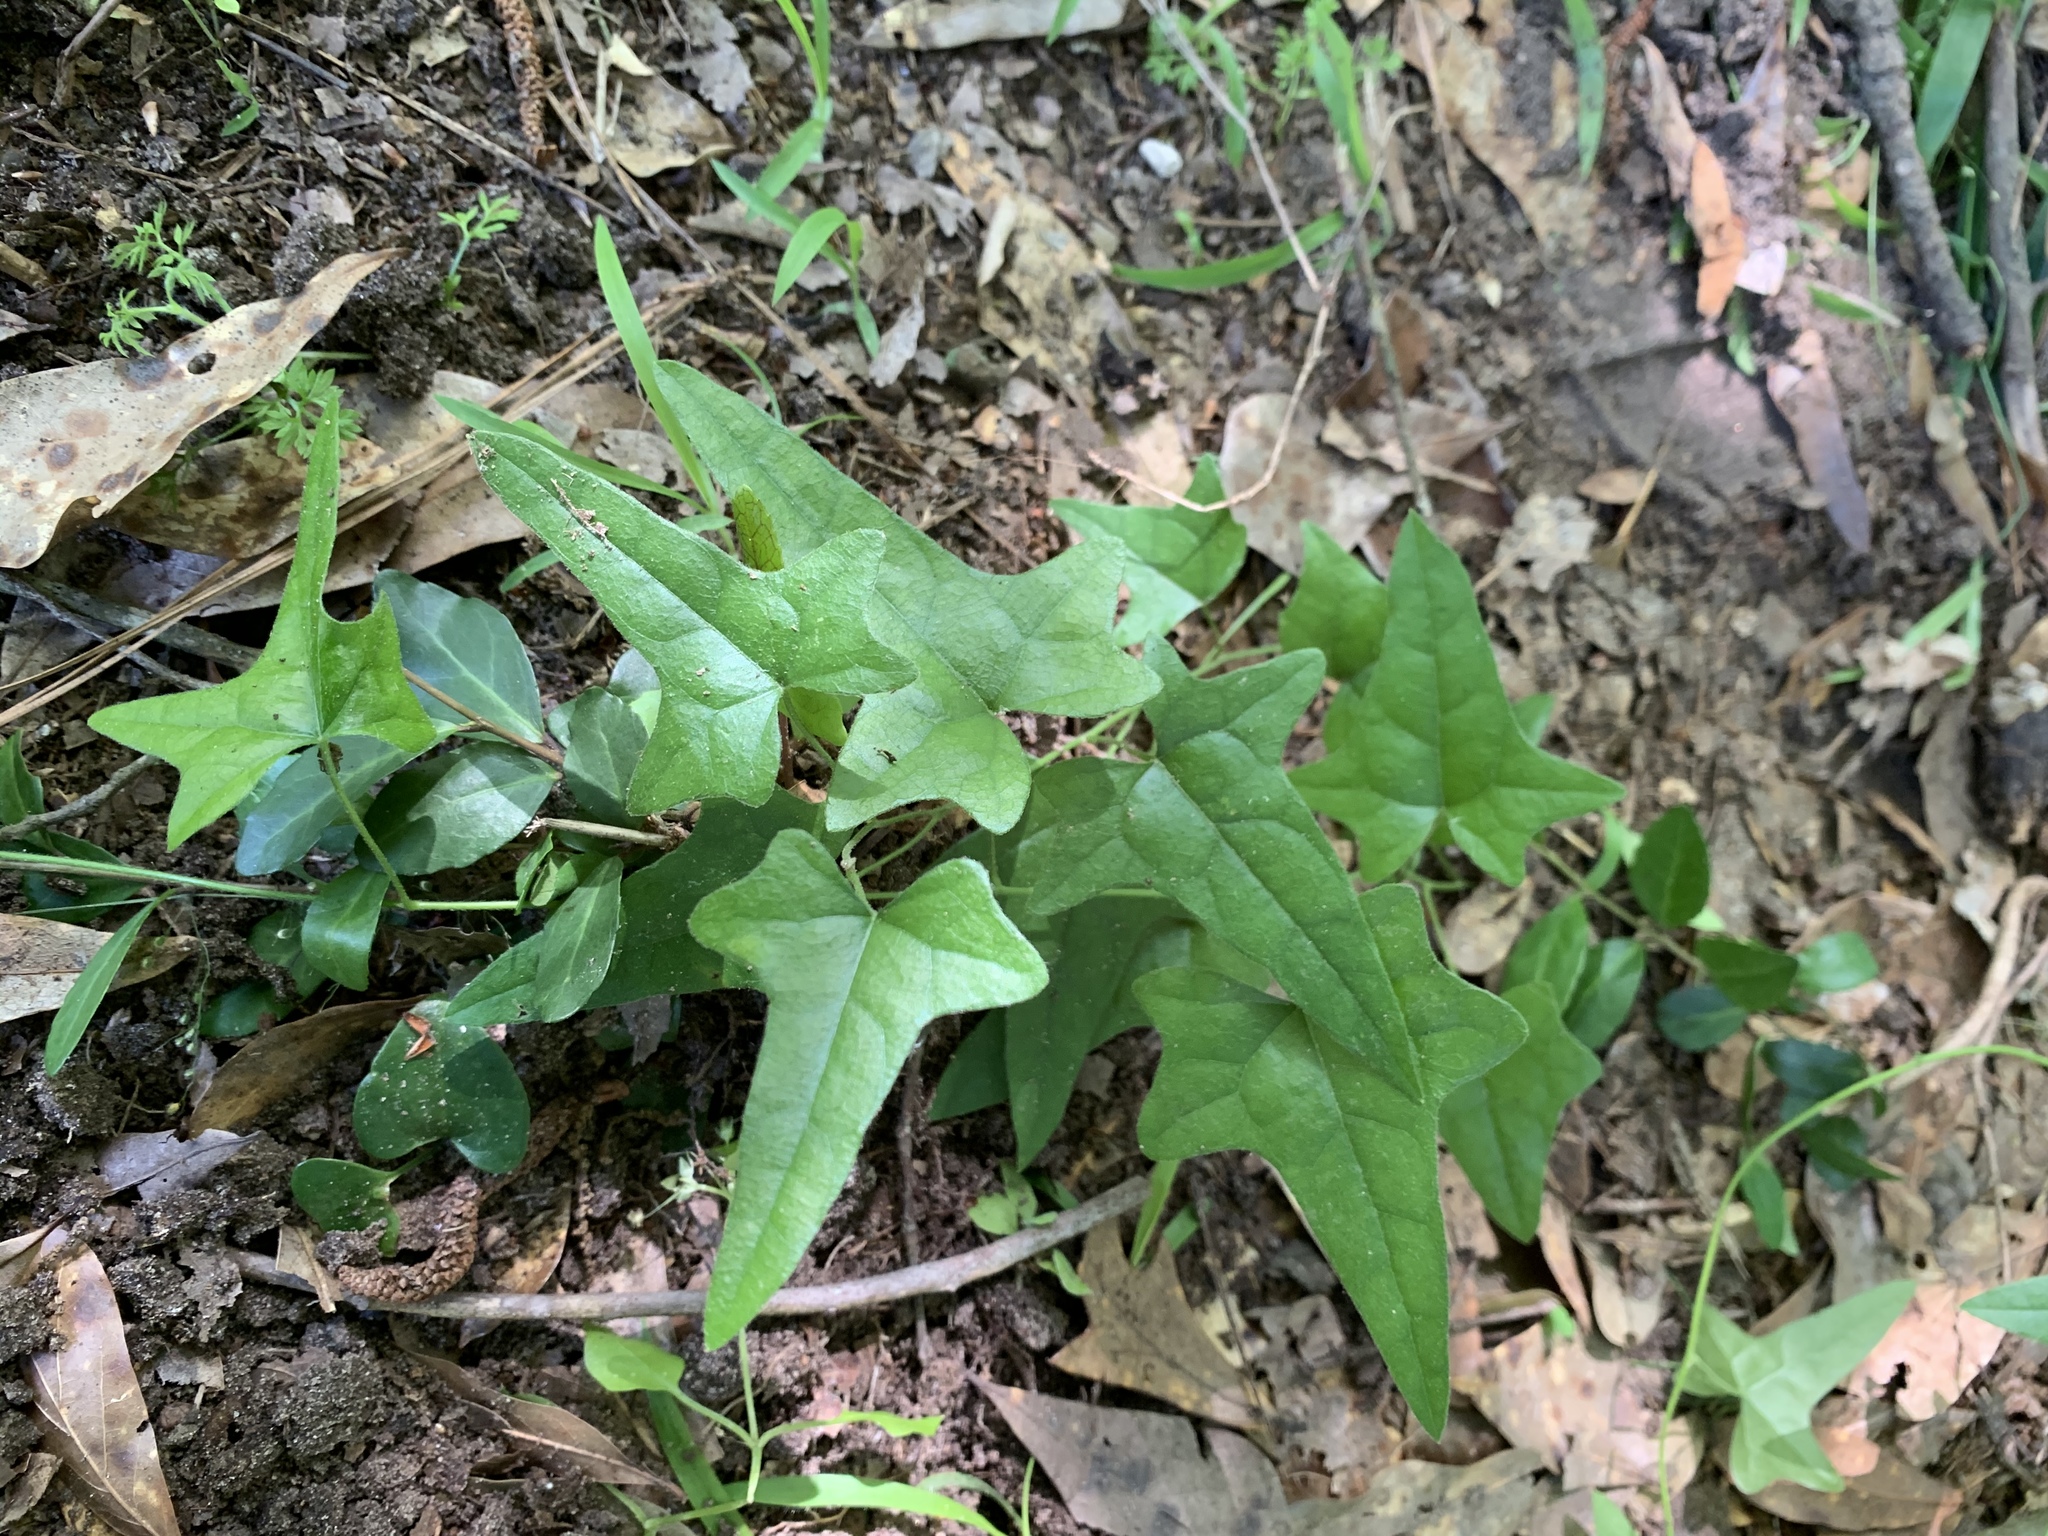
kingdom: Plantae
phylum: Tracheophyta
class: Magnoliopsida
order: Ranunculales
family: Menispermaceae
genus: Cocculus
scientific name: Cocculus carolinus
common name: Carolina moonseed
